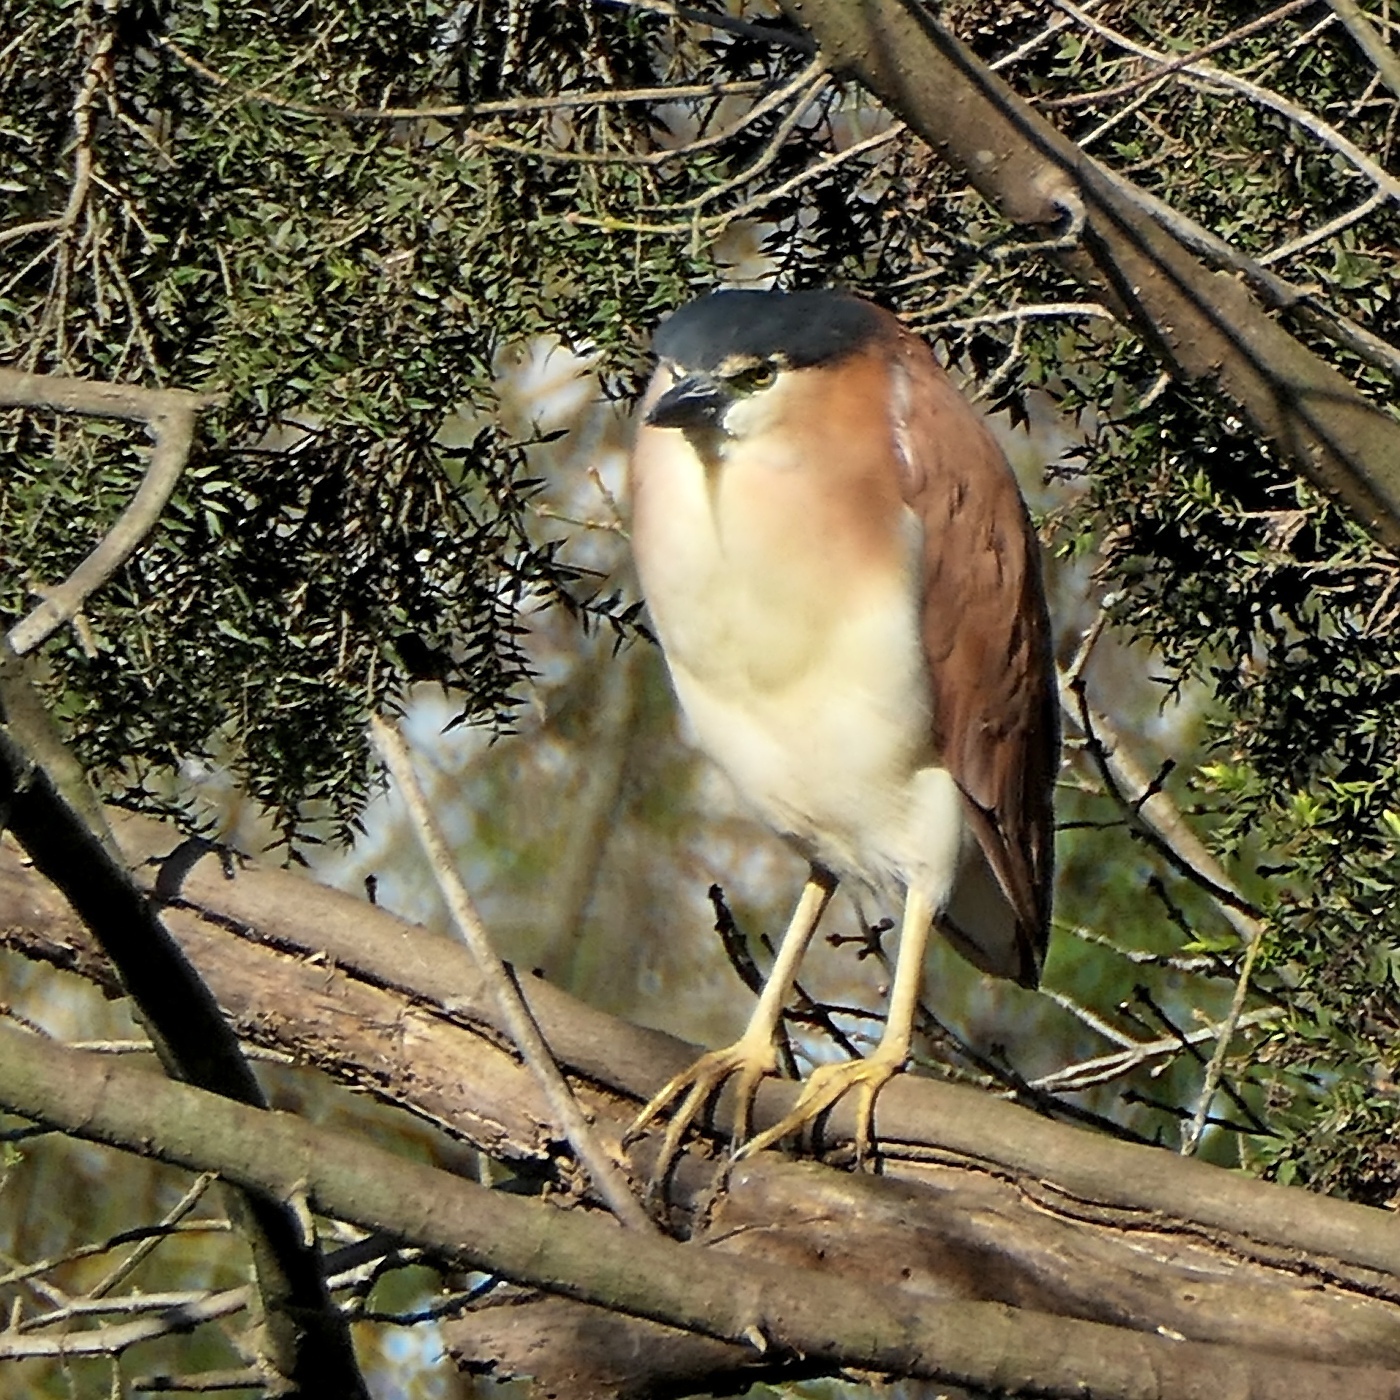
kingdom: Animalia
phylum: Chordata
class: Aves
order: Pelecaniformes
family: Ardeidae
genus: Nycticorax
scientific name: Nycticorax caledonicus
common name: Rufous night-heron
